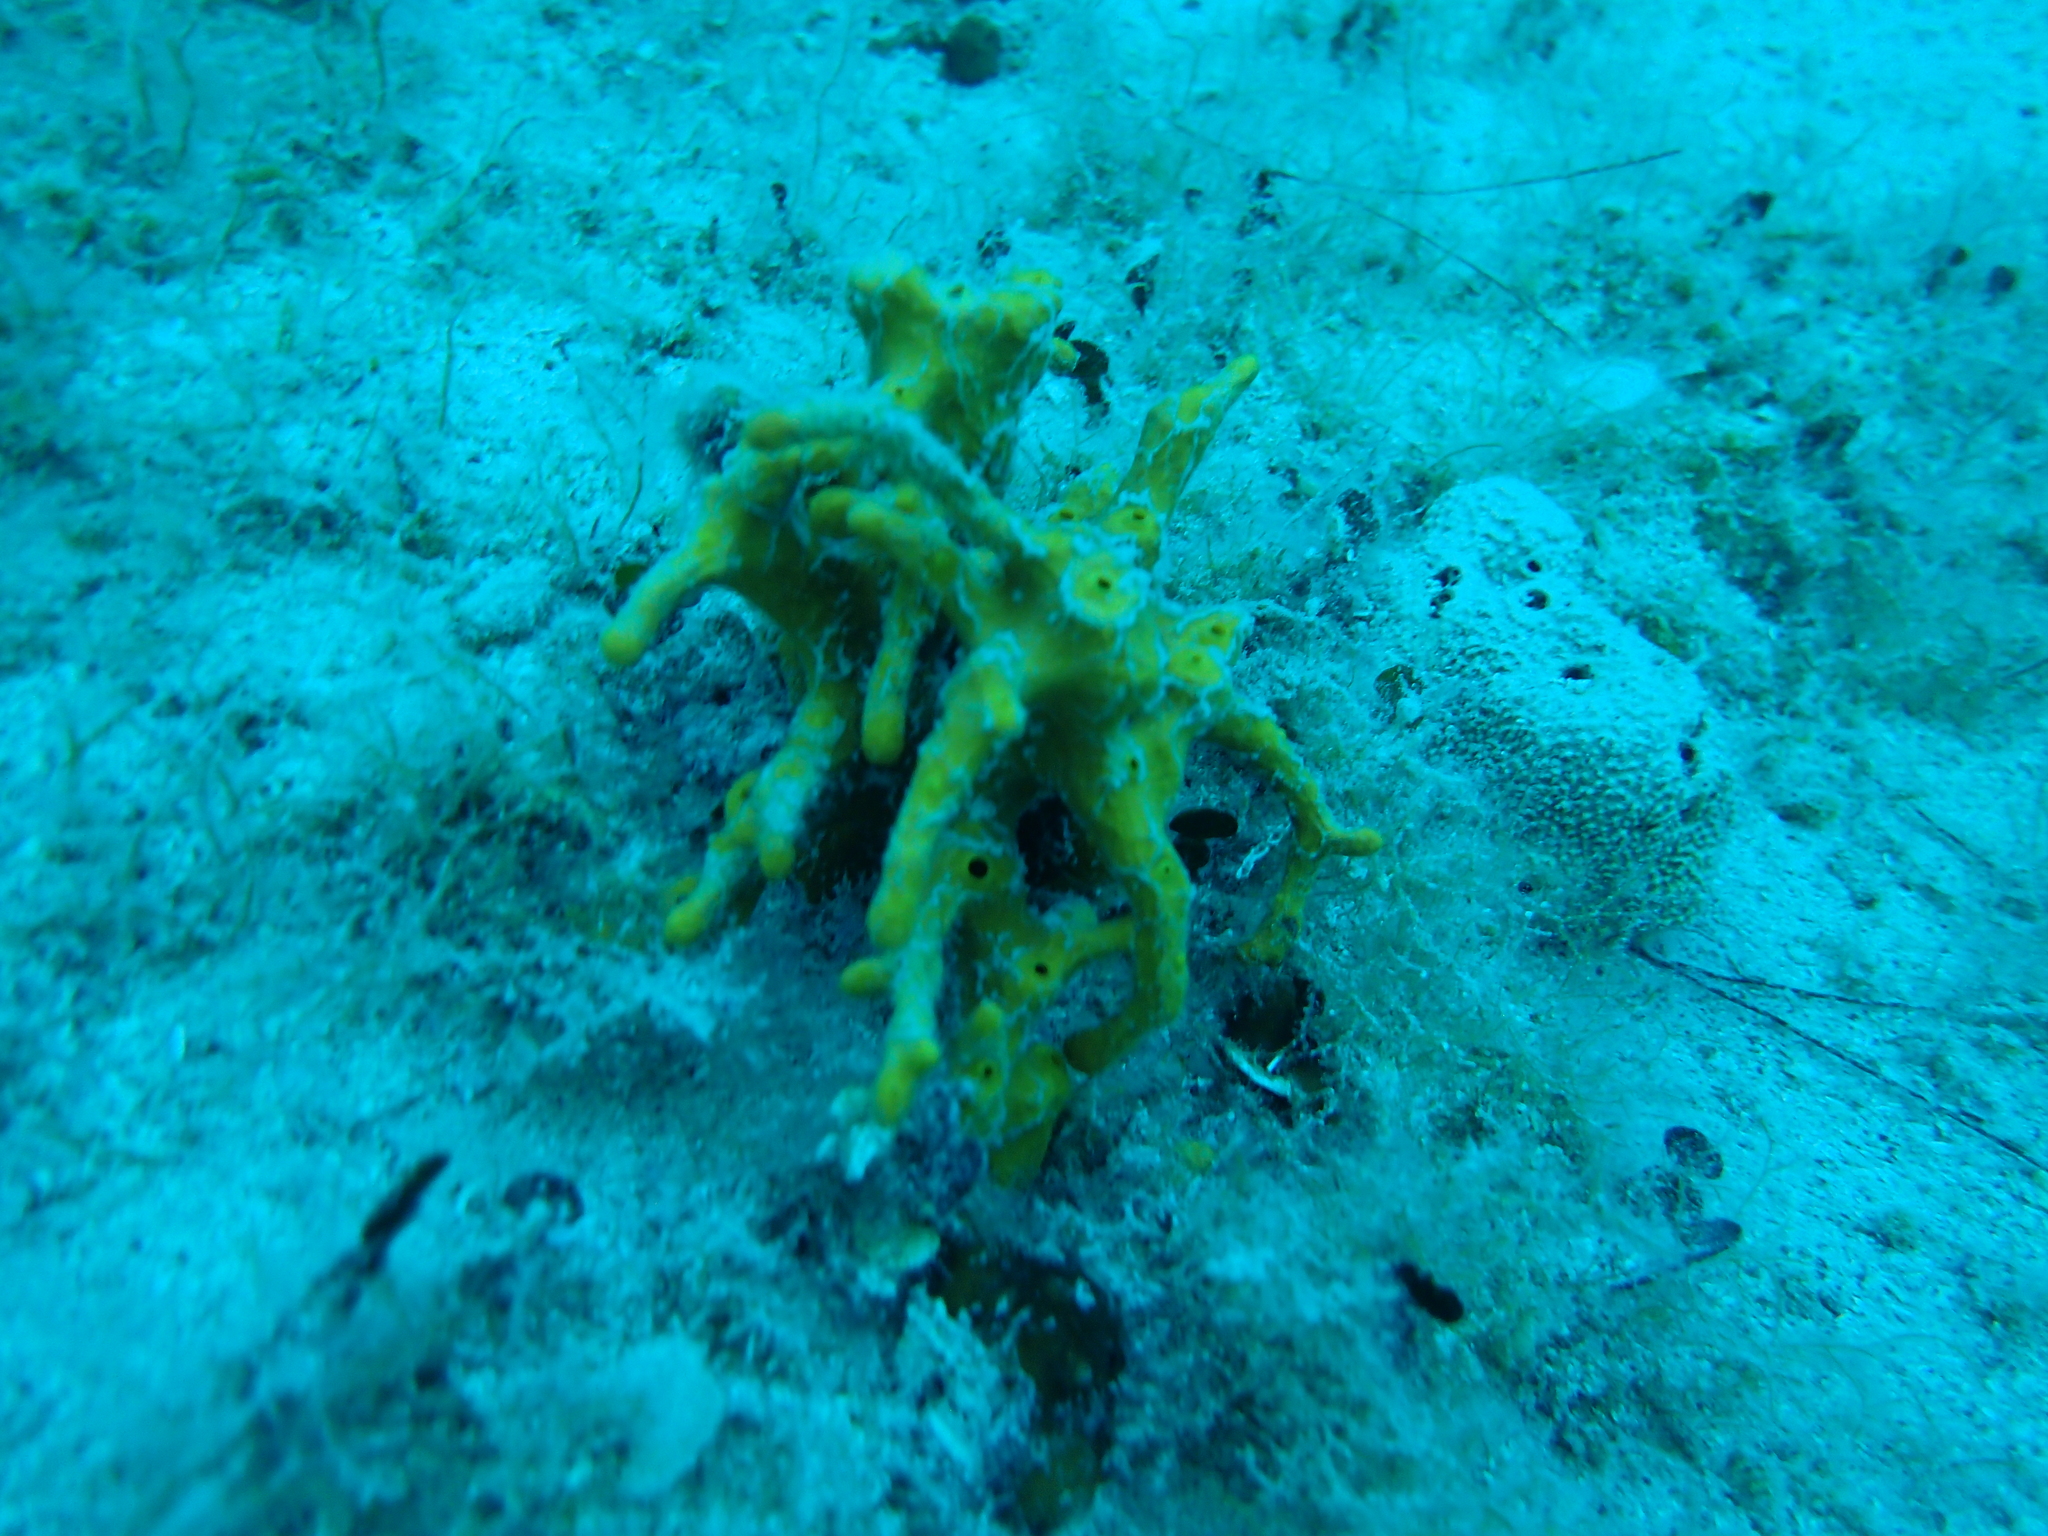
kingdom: Animalia
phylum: Porifera
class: Demospongiae
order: Verongiida
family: Aplysinidae
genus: Aplysina
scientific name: Aplysina aerophoba
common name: Aureate sponge
